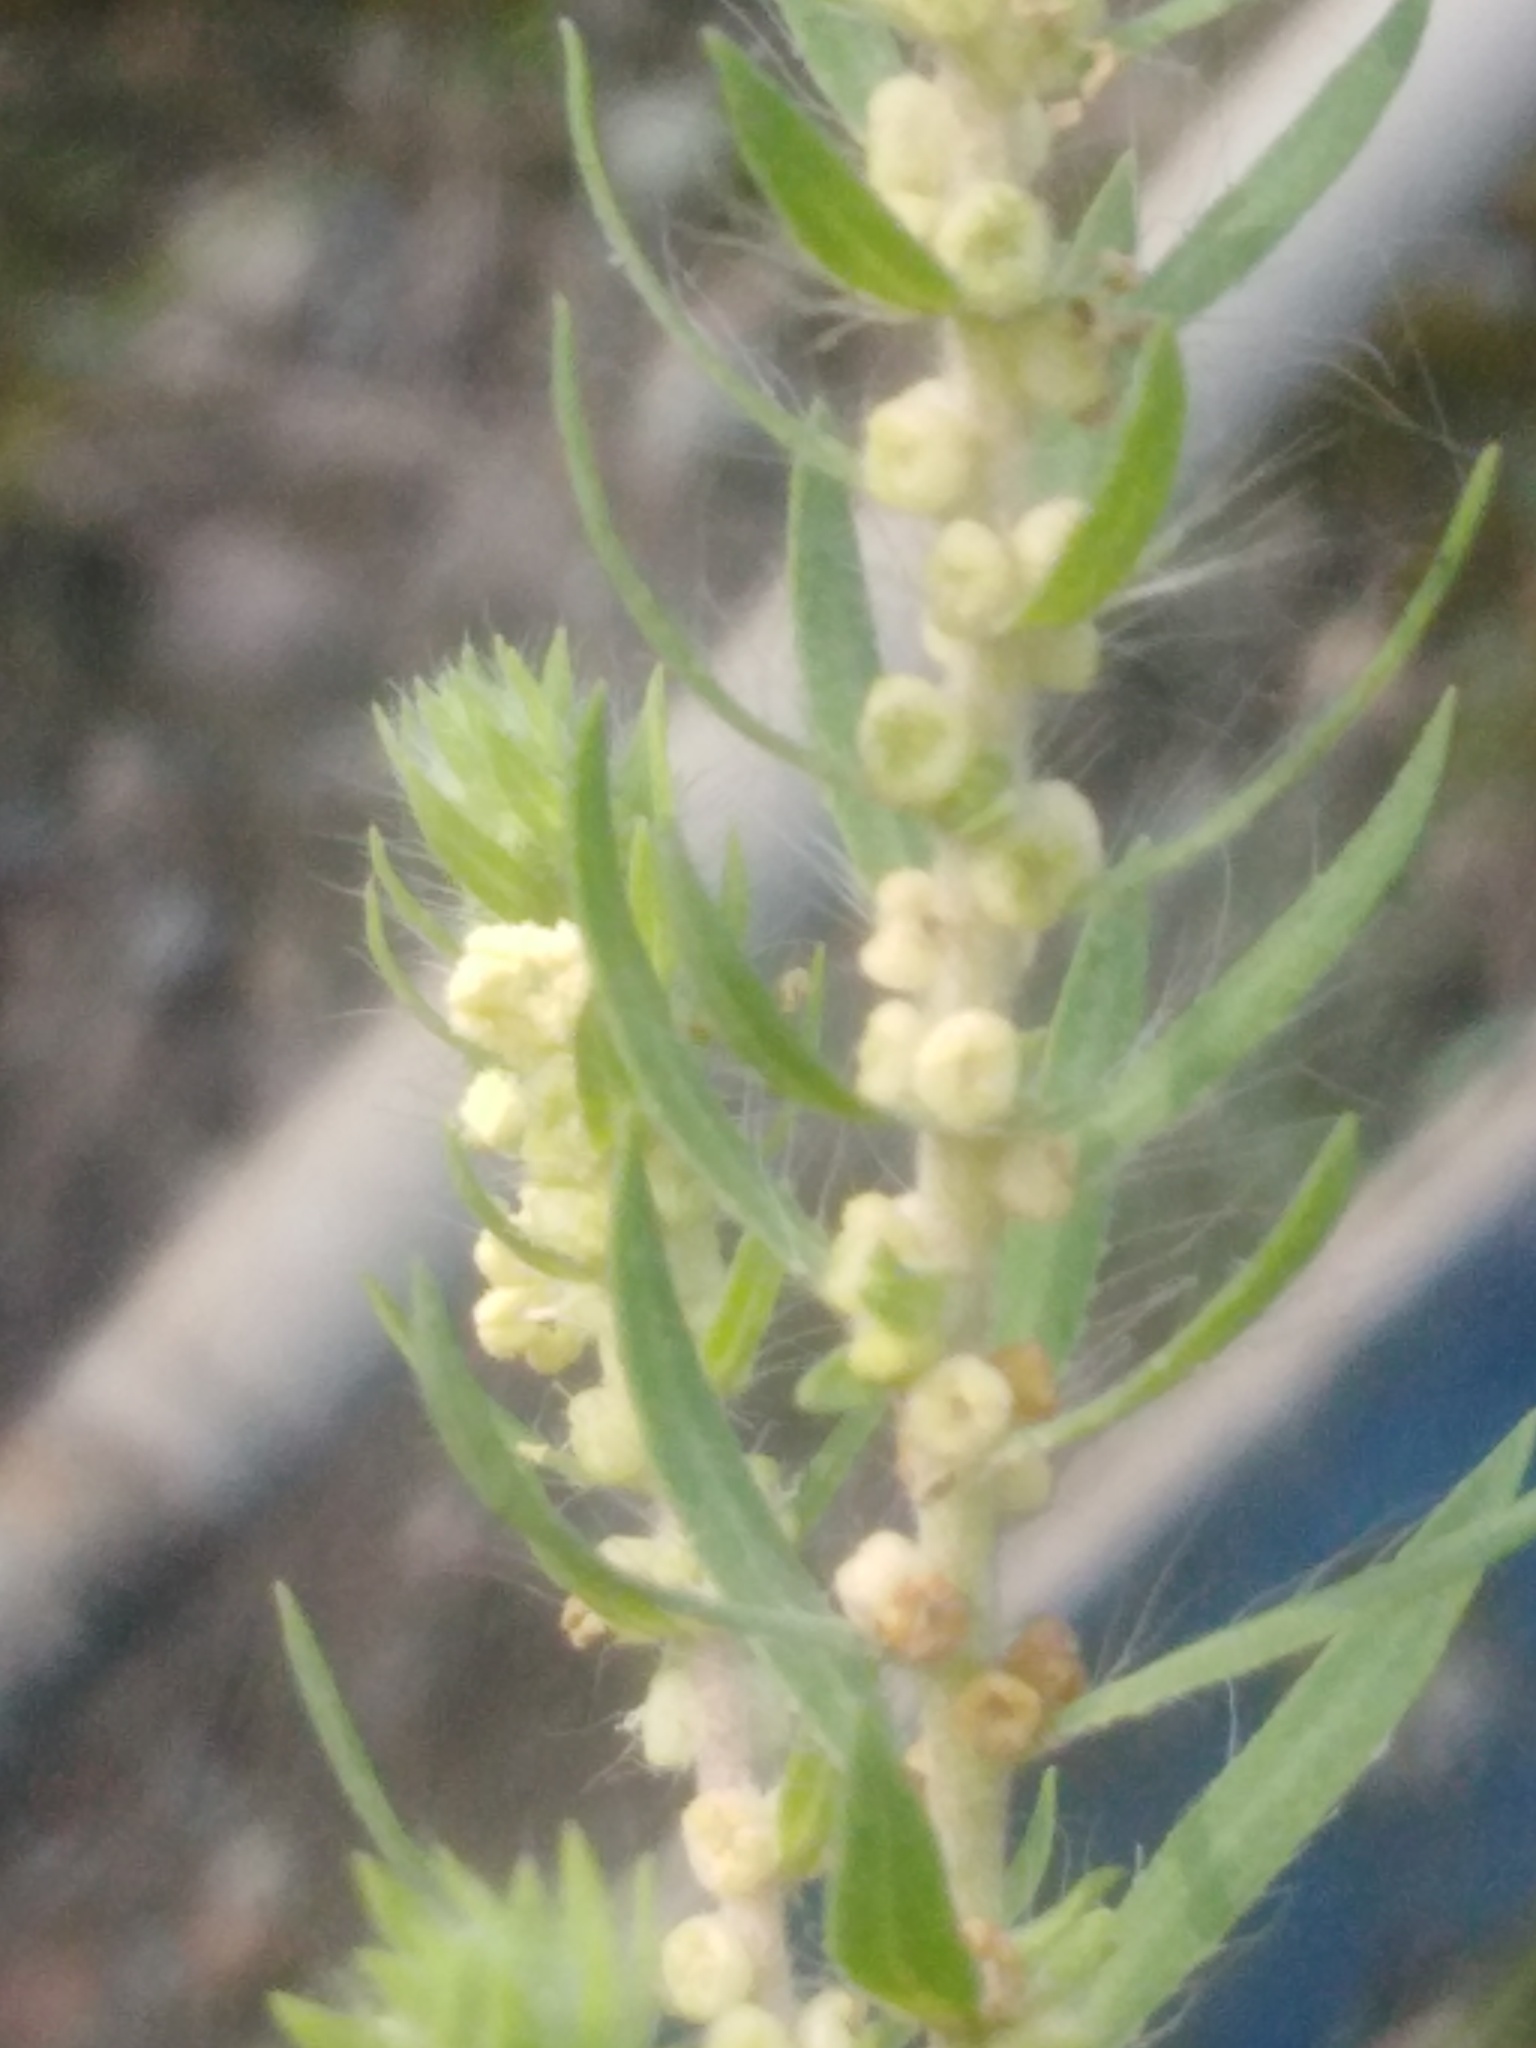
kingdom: Plantae
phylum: Tracheophyta
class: Magnoliopsida
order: Caryophyllales
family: Amaranthaceae
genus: Bassia
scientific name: Bassia scoparia
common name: Belvedere
